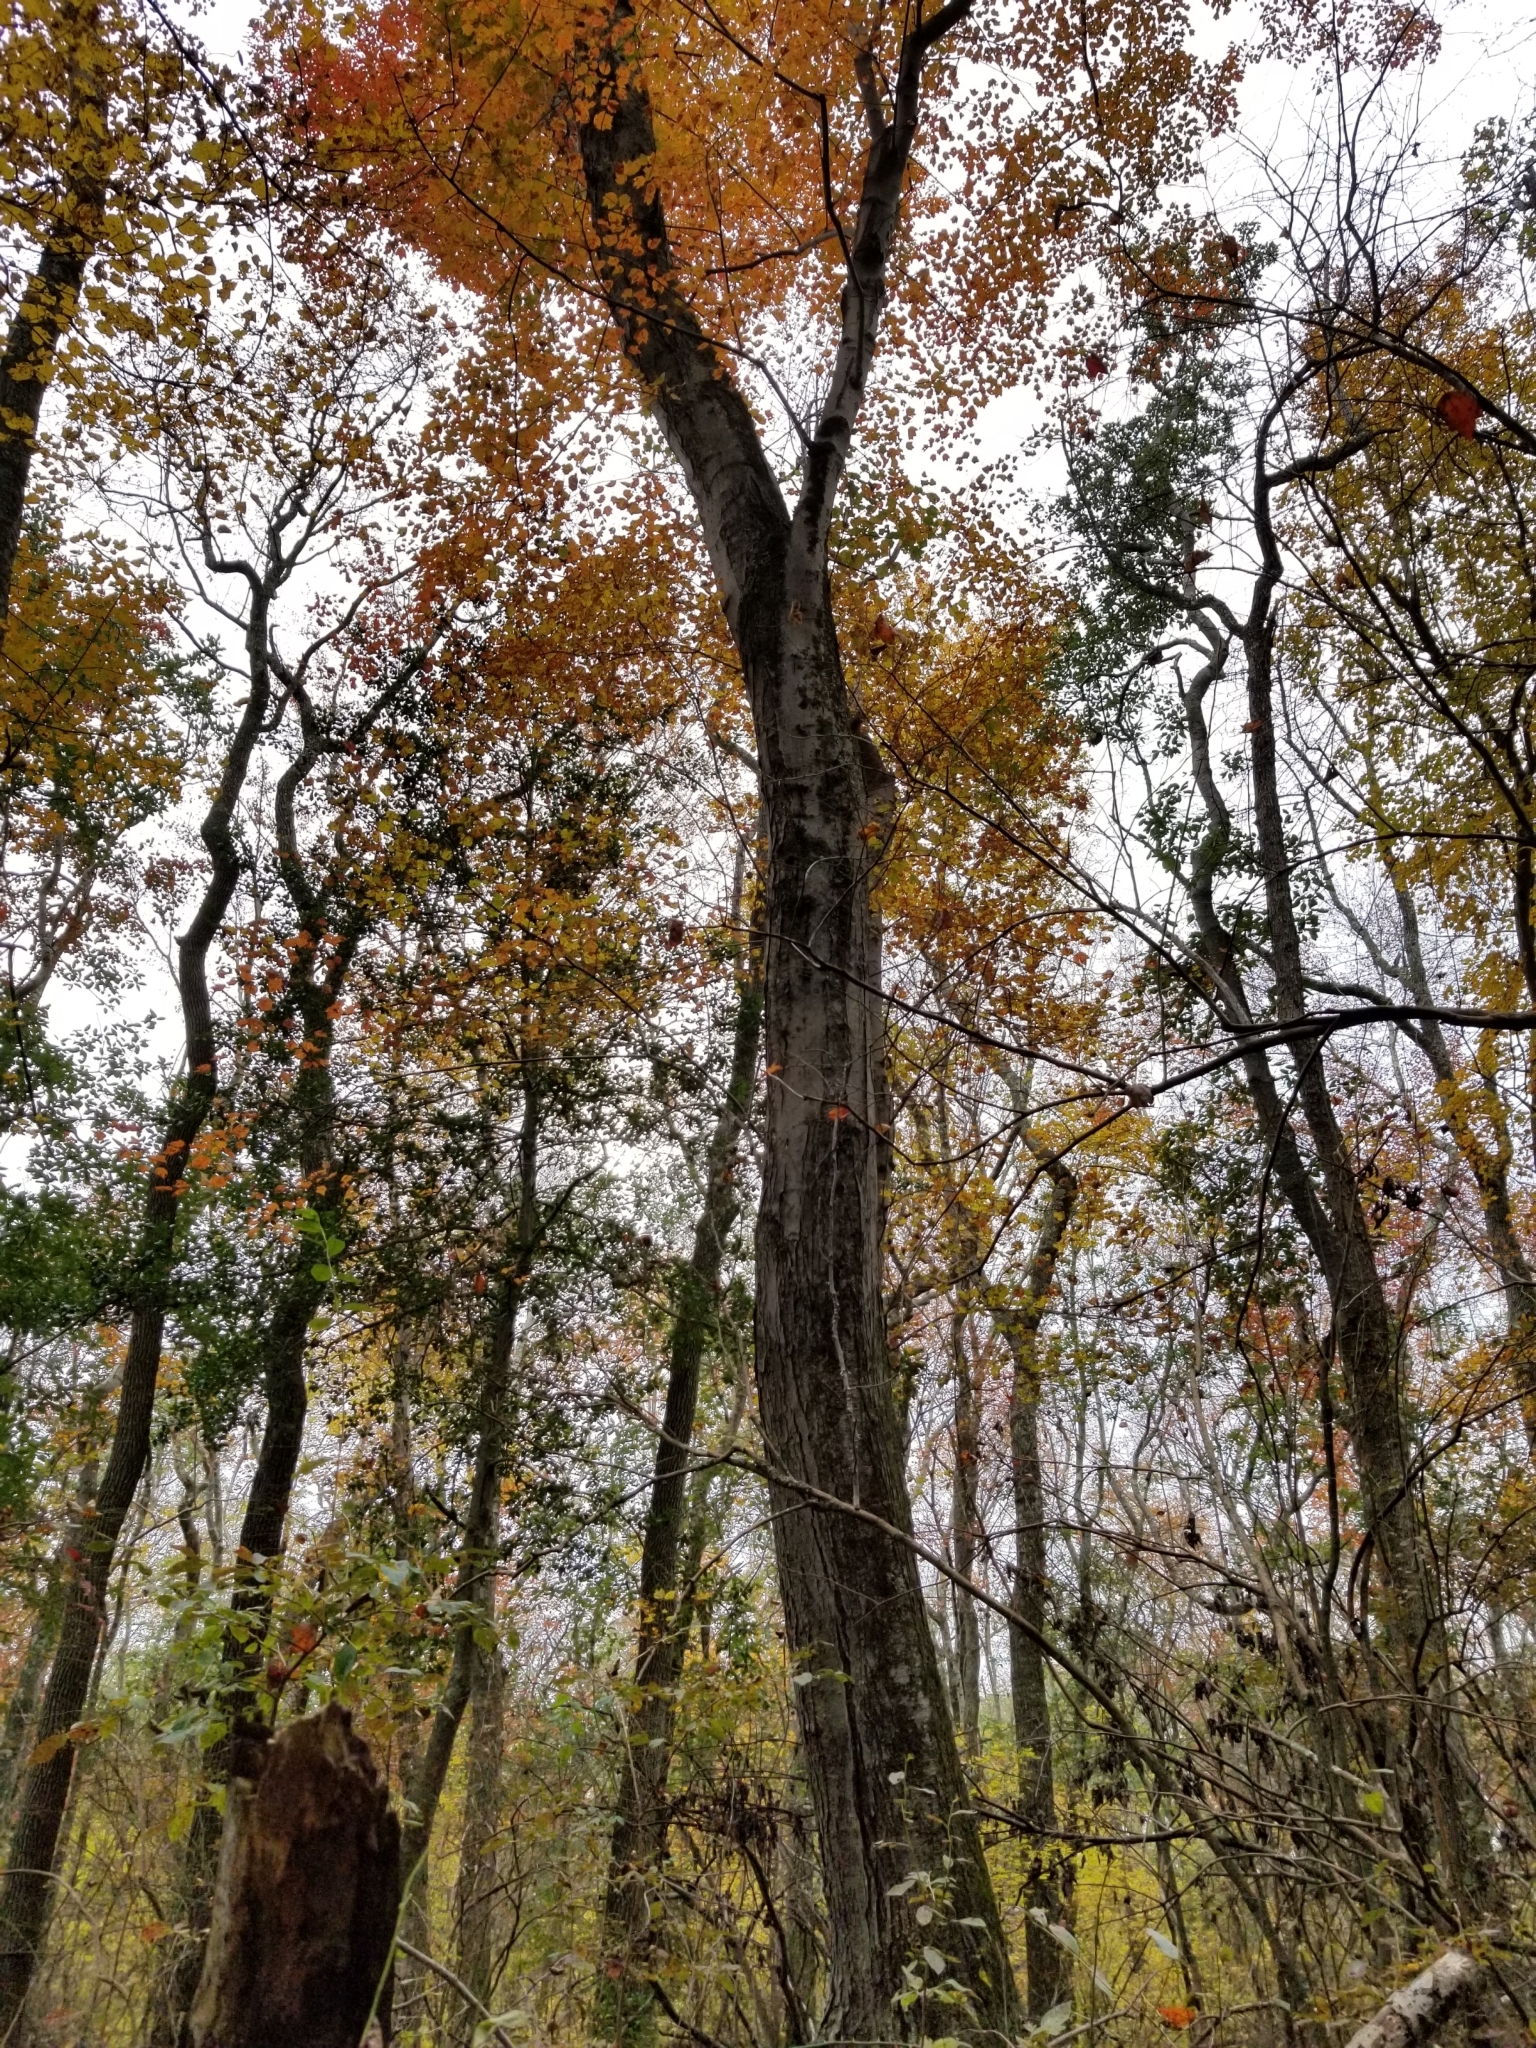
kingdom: Plantae
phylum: Tracheophyta
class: Magnoliopsida
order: Sapindales
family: Sapindaceae
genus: Acer
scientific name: Acer rubrum
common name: Red maple
